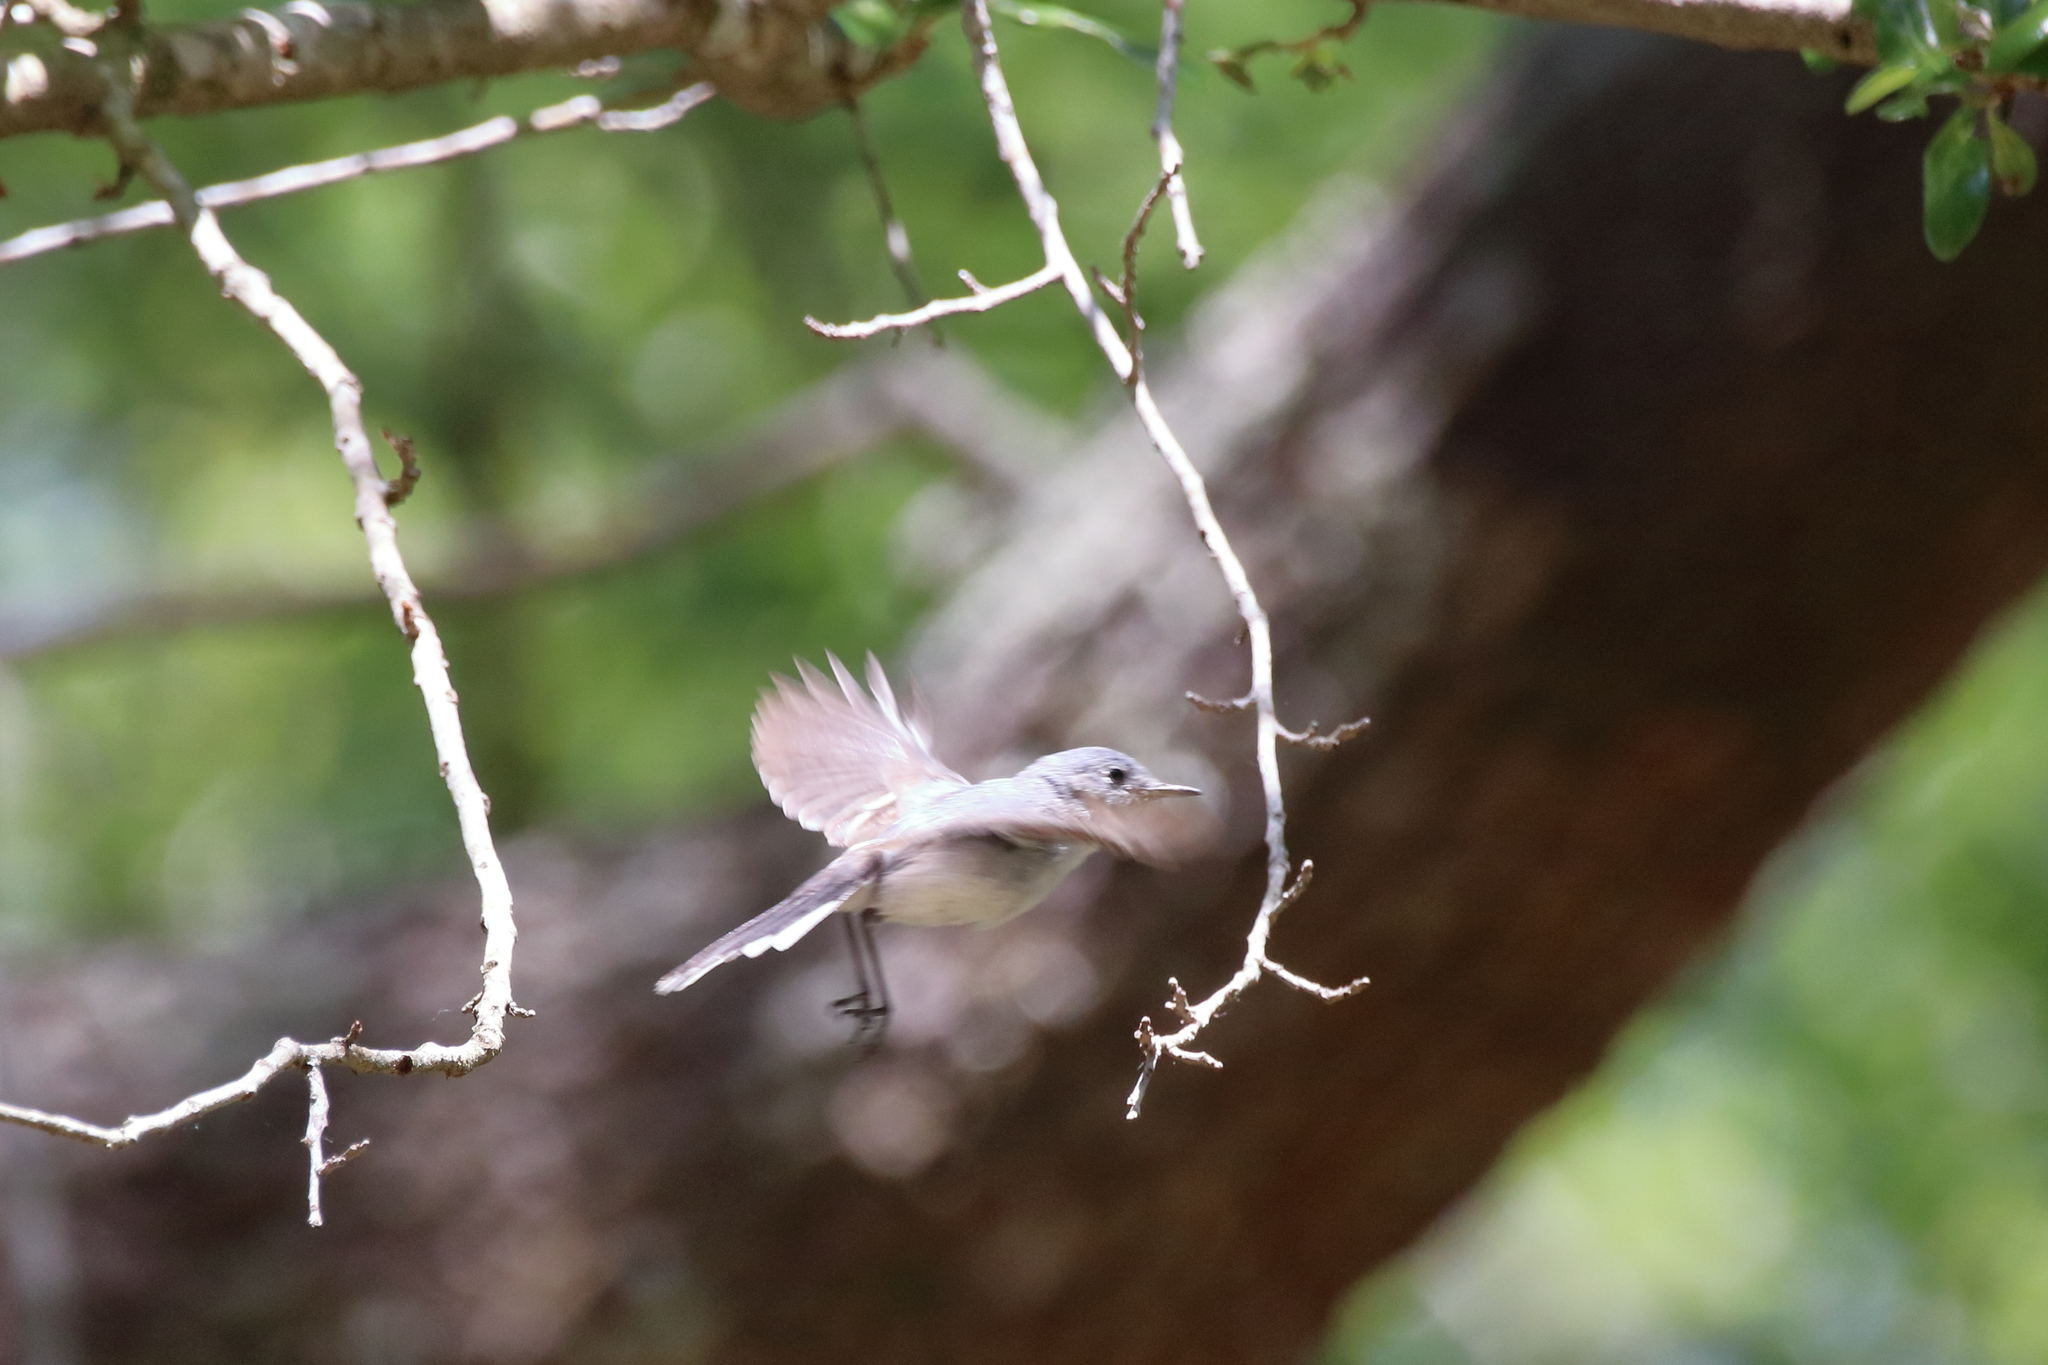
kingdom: Animalia
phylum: Chordata
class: Aves
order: Passeriformes
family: Polioptilidae
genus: Polioptila
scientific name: Polioptila caerulea
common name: Blue-gray gnatcatcher
